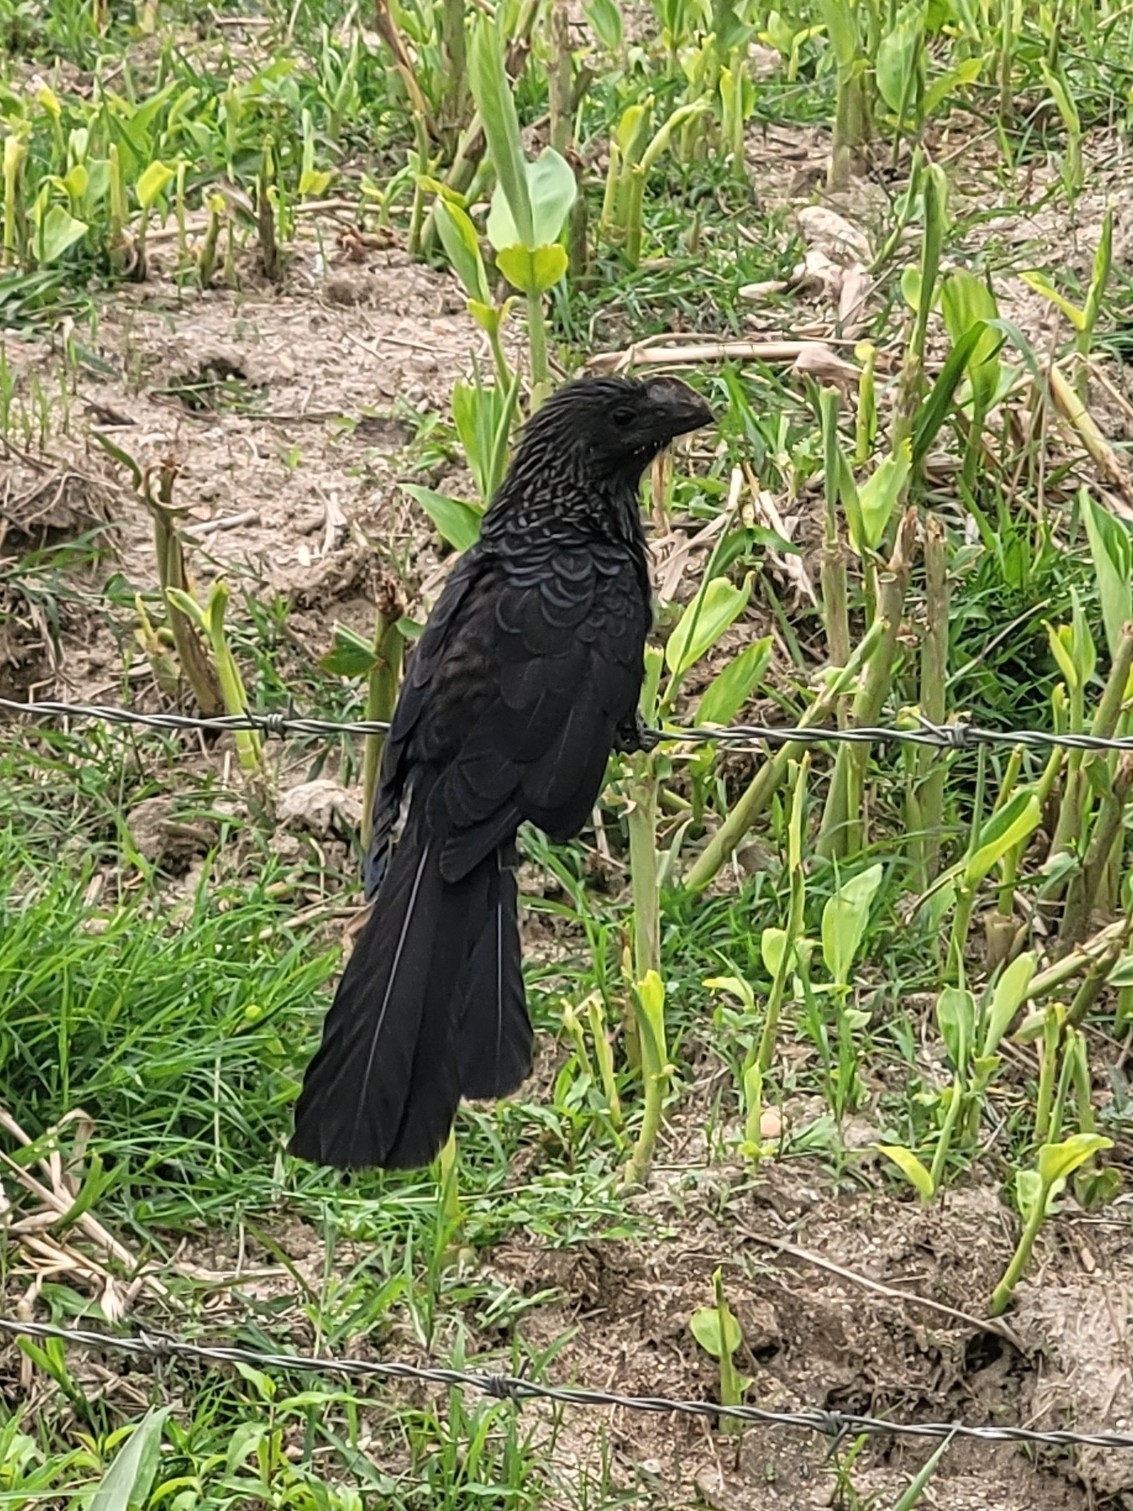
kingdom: Animalia
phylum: Chordata
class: Aves
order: Cuculiformes
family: Cuculidae
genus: Crotophaga
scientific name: Crotophaga ani
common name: Smooth-billed ani
